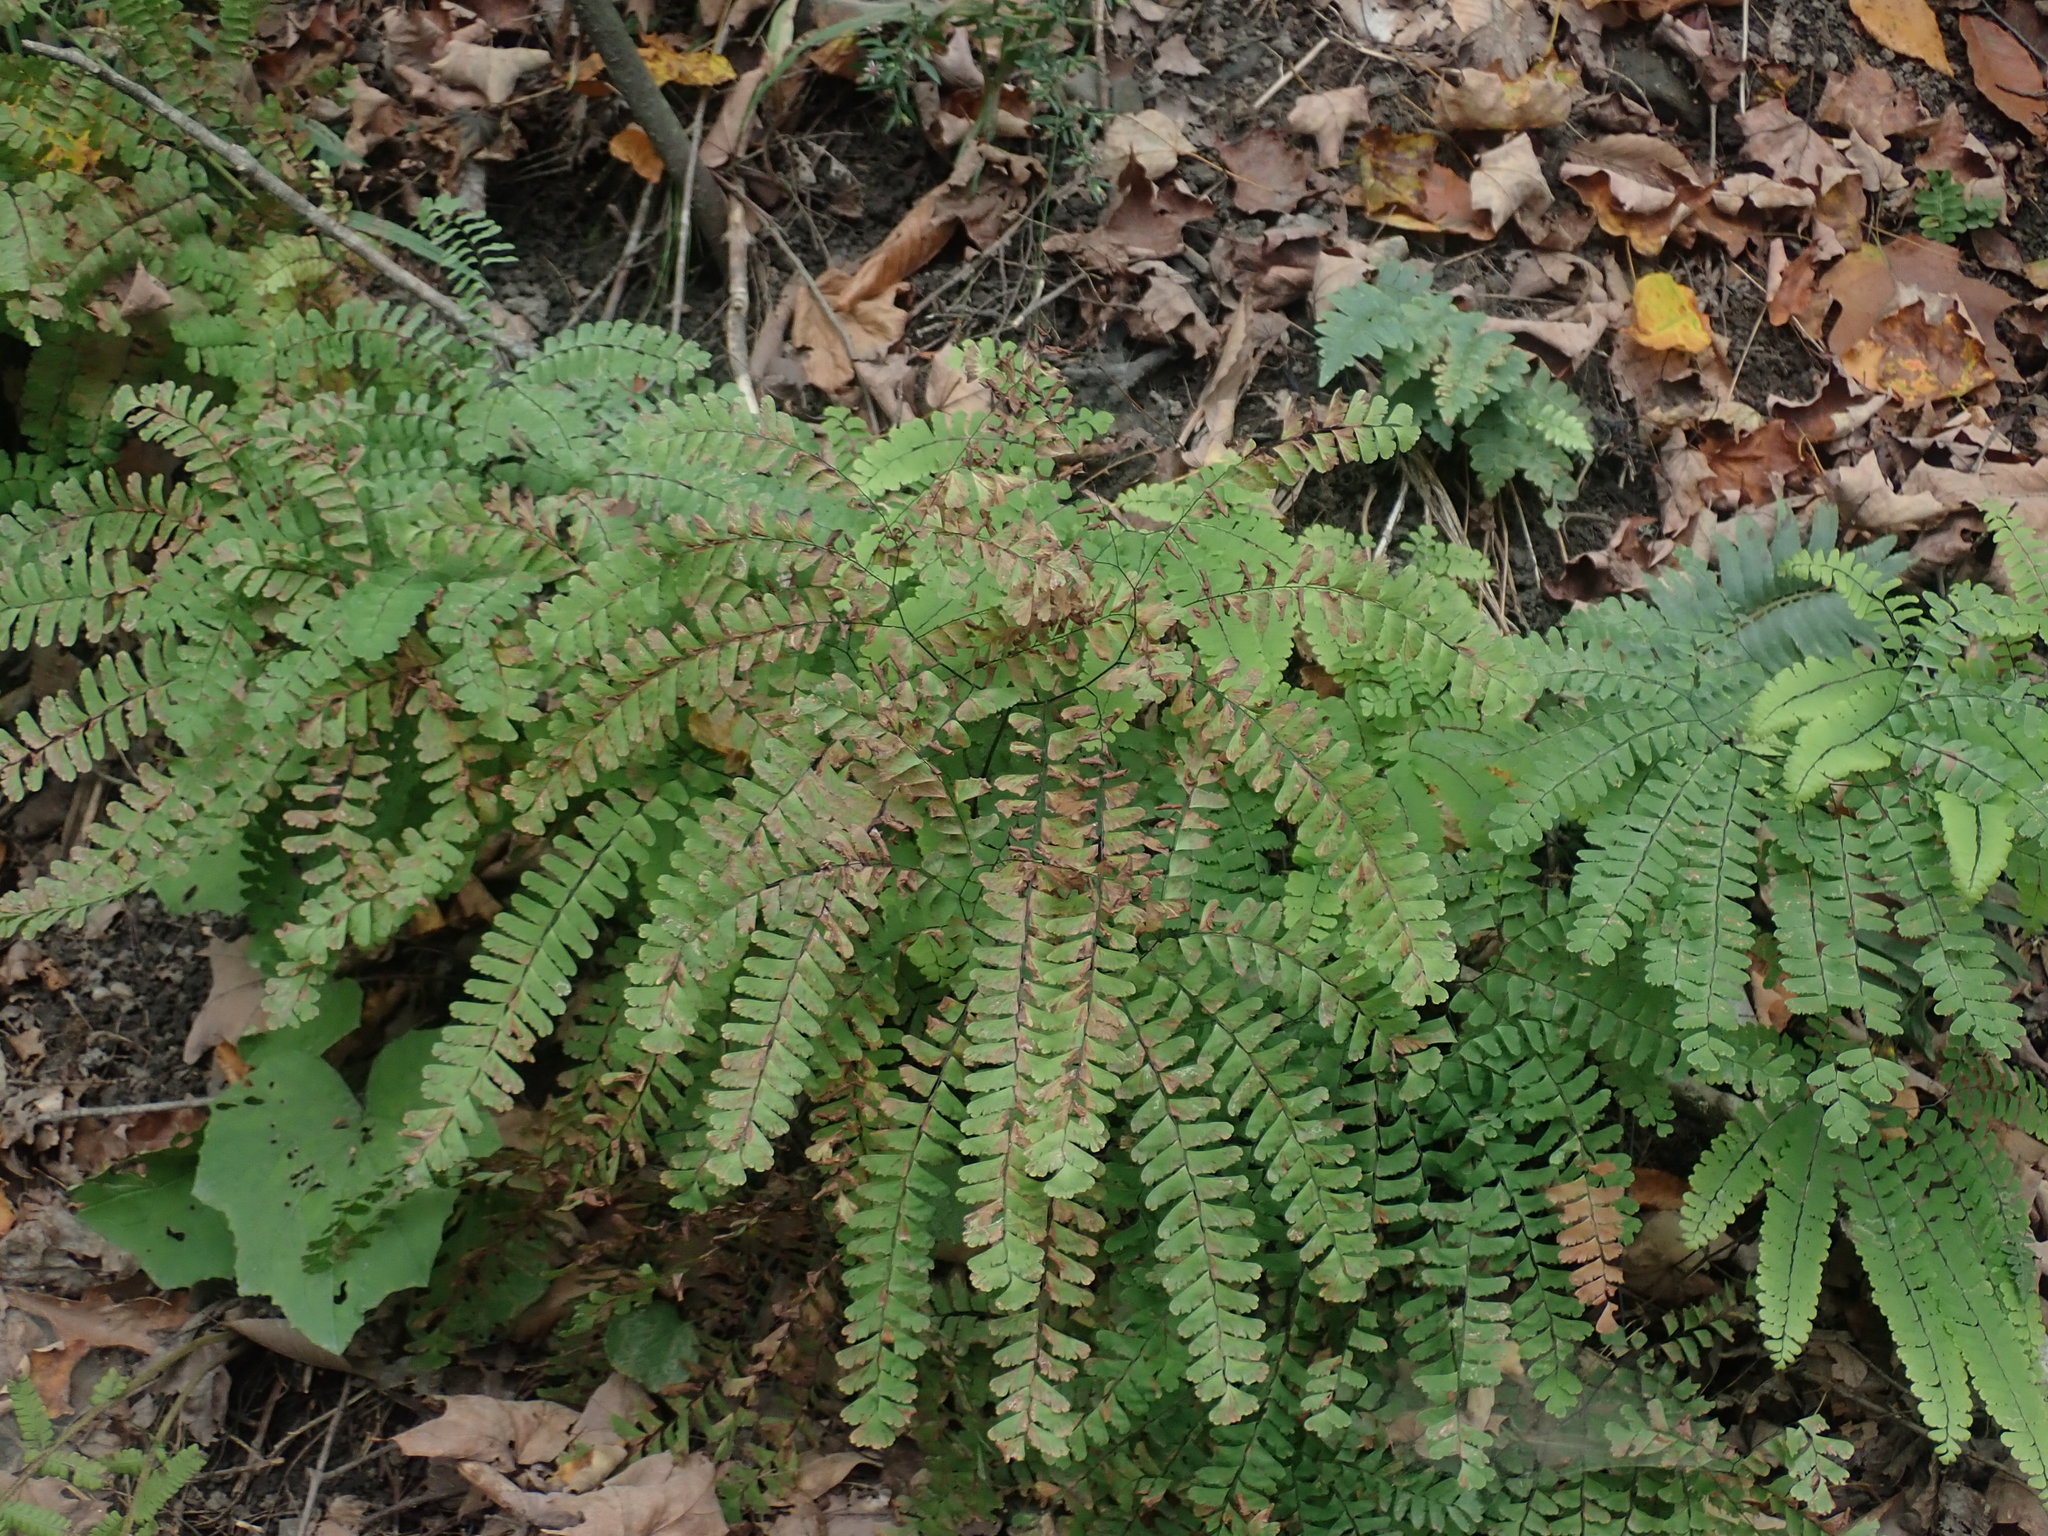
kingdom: Plantae
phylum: Tracheophyta
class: Polypodiopsida
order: Polypodiales
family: Pteridaceae
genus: Adiantum
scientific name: Adiantum pedatum
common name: Five-finger fern
